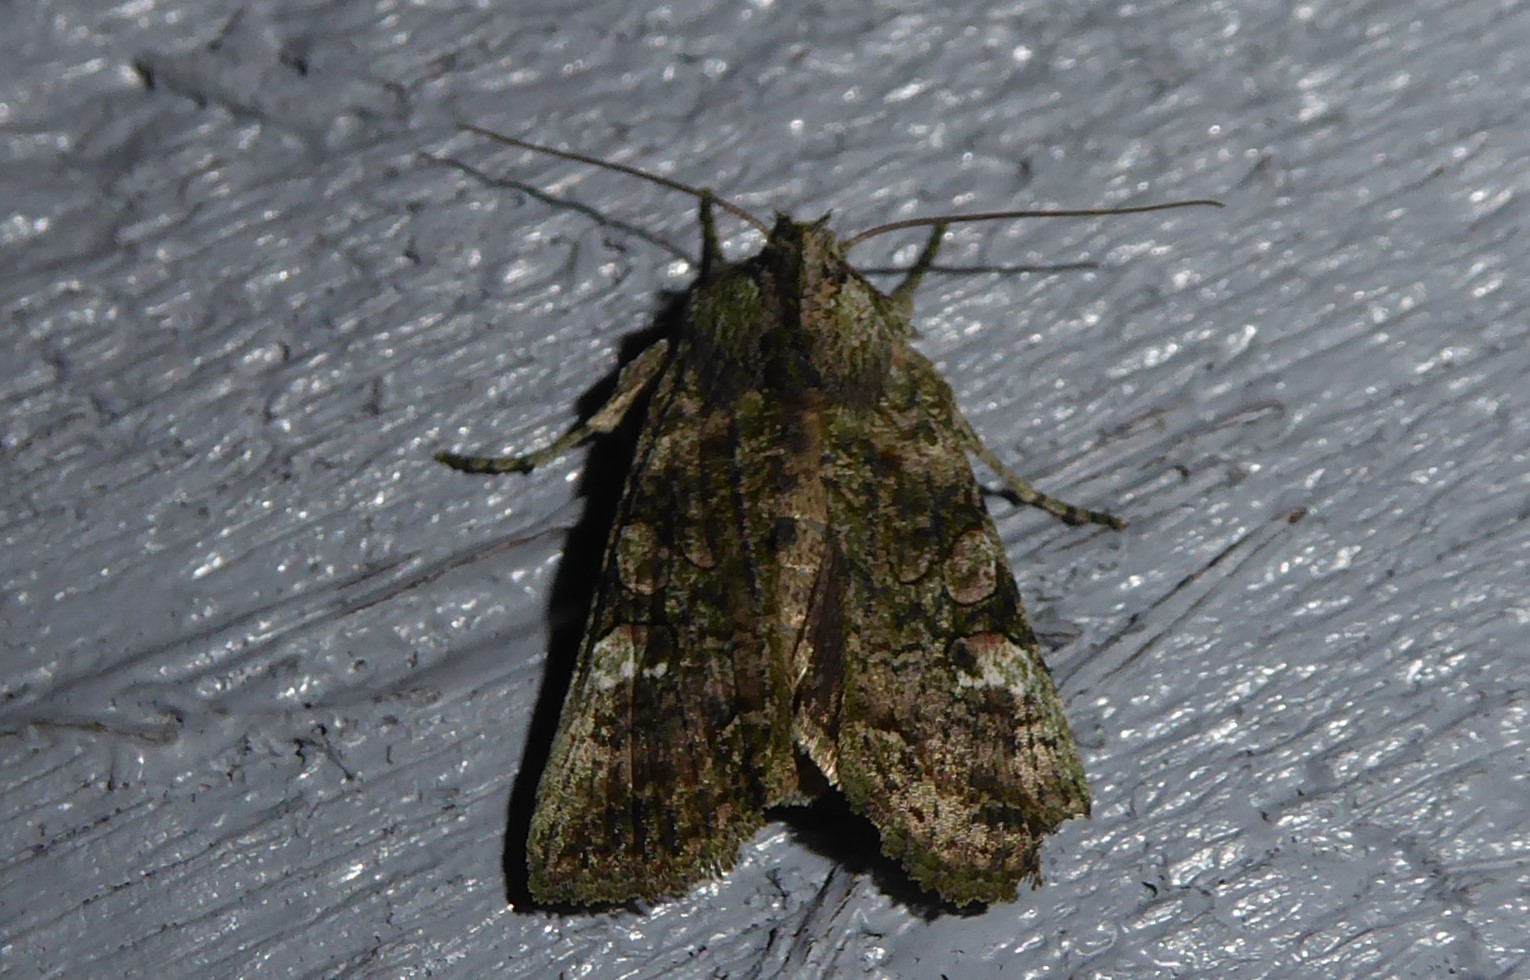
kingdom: Animalia
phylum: Arthropoda
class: Insecta
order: Lepidoptera
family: Noctuidae
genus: Meterana
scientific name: Meterana levis
